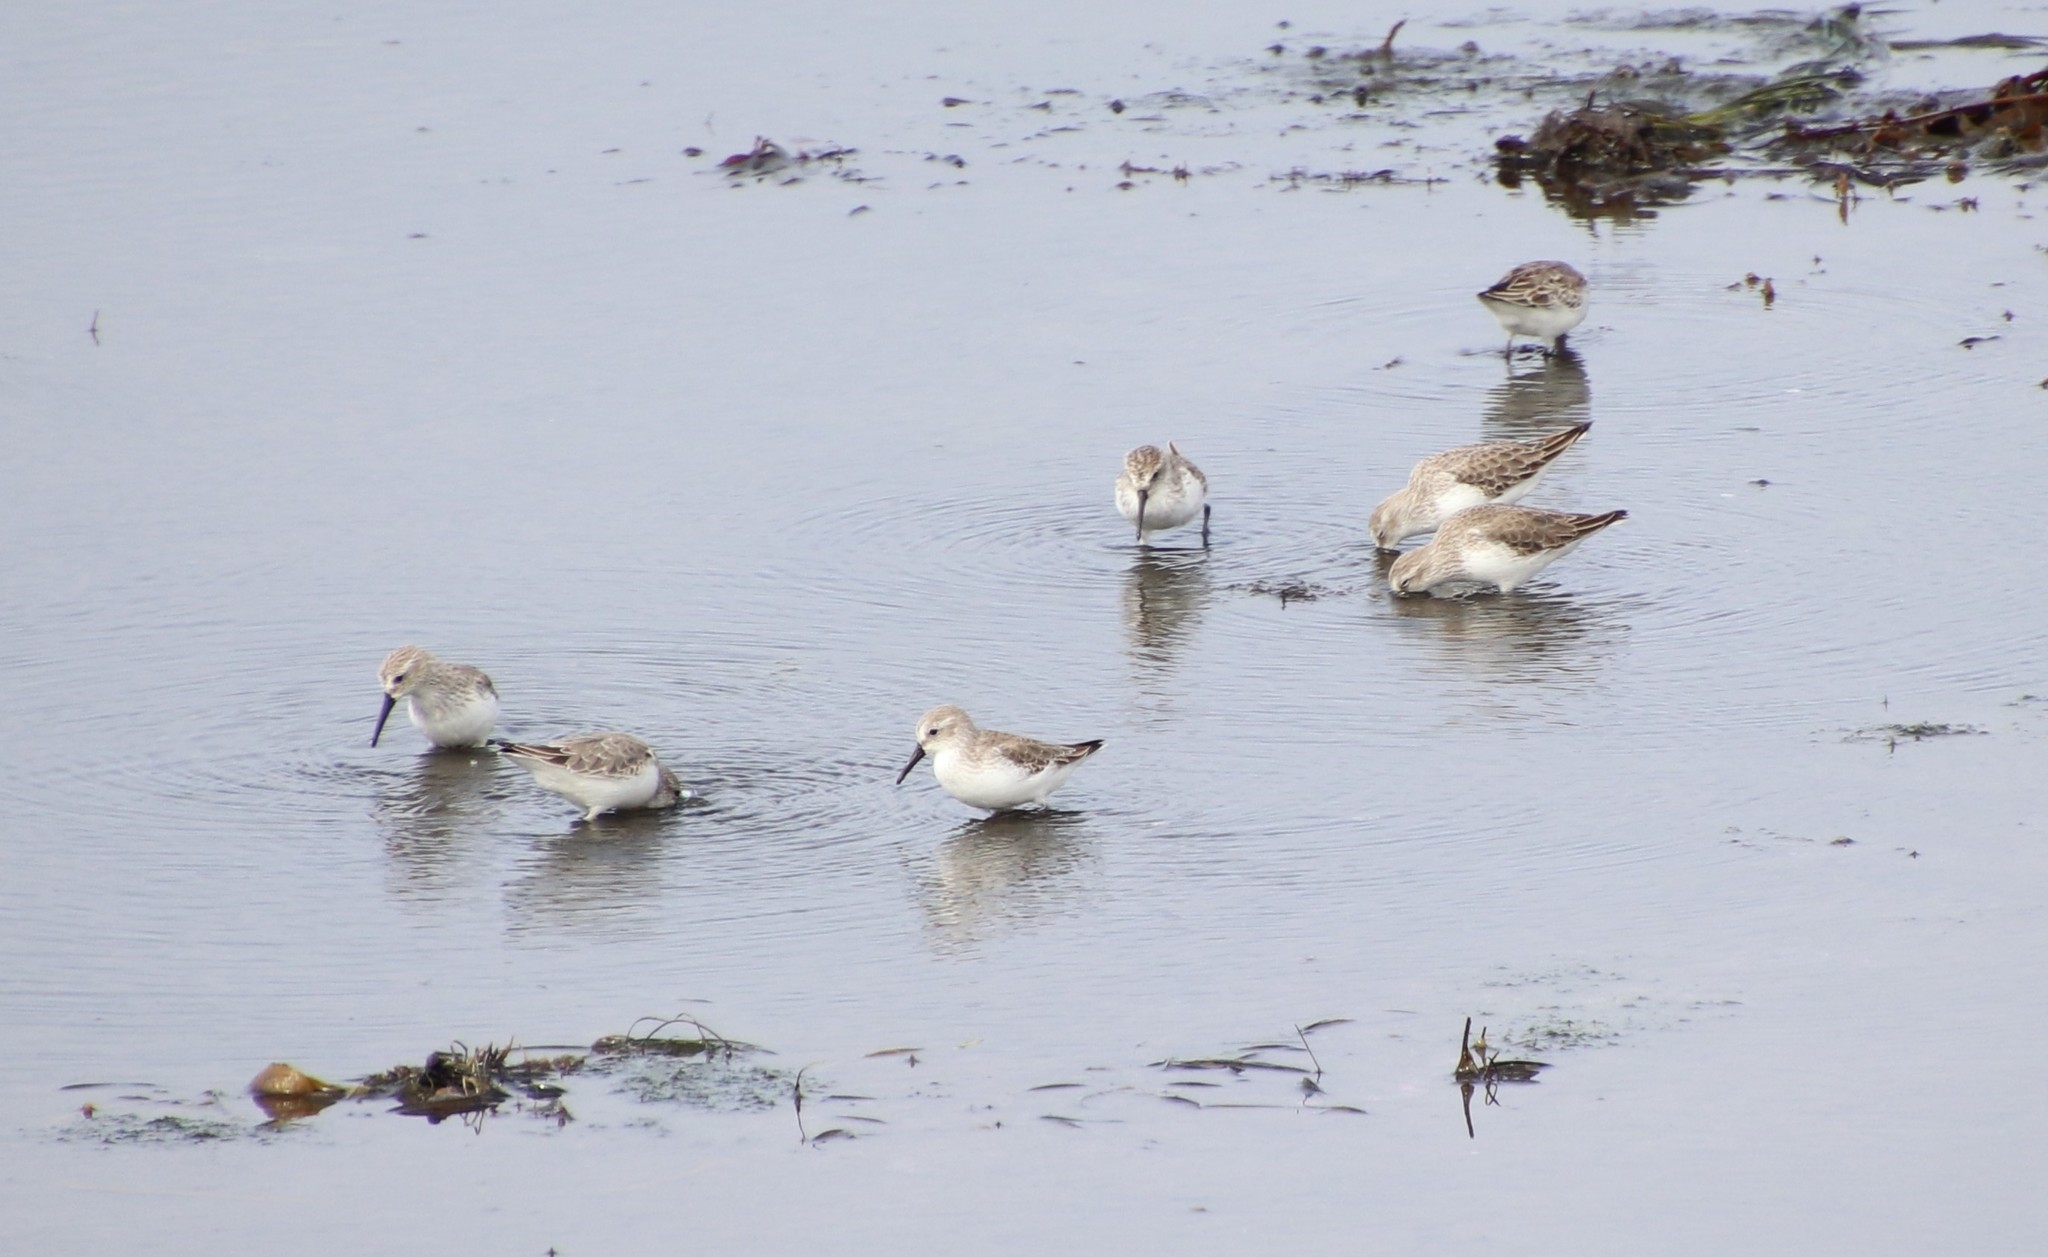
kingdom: Animalia
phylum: Chordata
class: Aves
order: Charadriiformes
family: Scolopacidae
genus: Calidris
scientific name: Calidris mauri
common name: Western sandpiper
